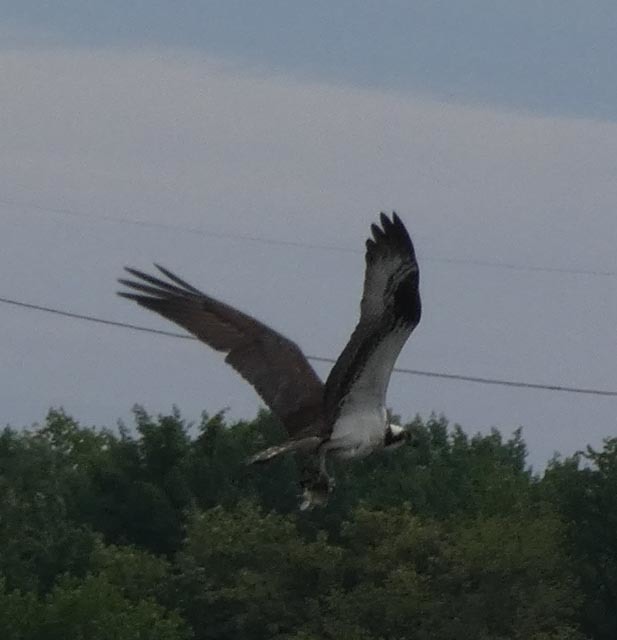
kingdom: Animalia
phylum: Chordata
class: Aves
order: Accipitriformes
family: Pandionidae
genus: Pandion
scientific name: Pandion haliaetus
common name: Osprey
